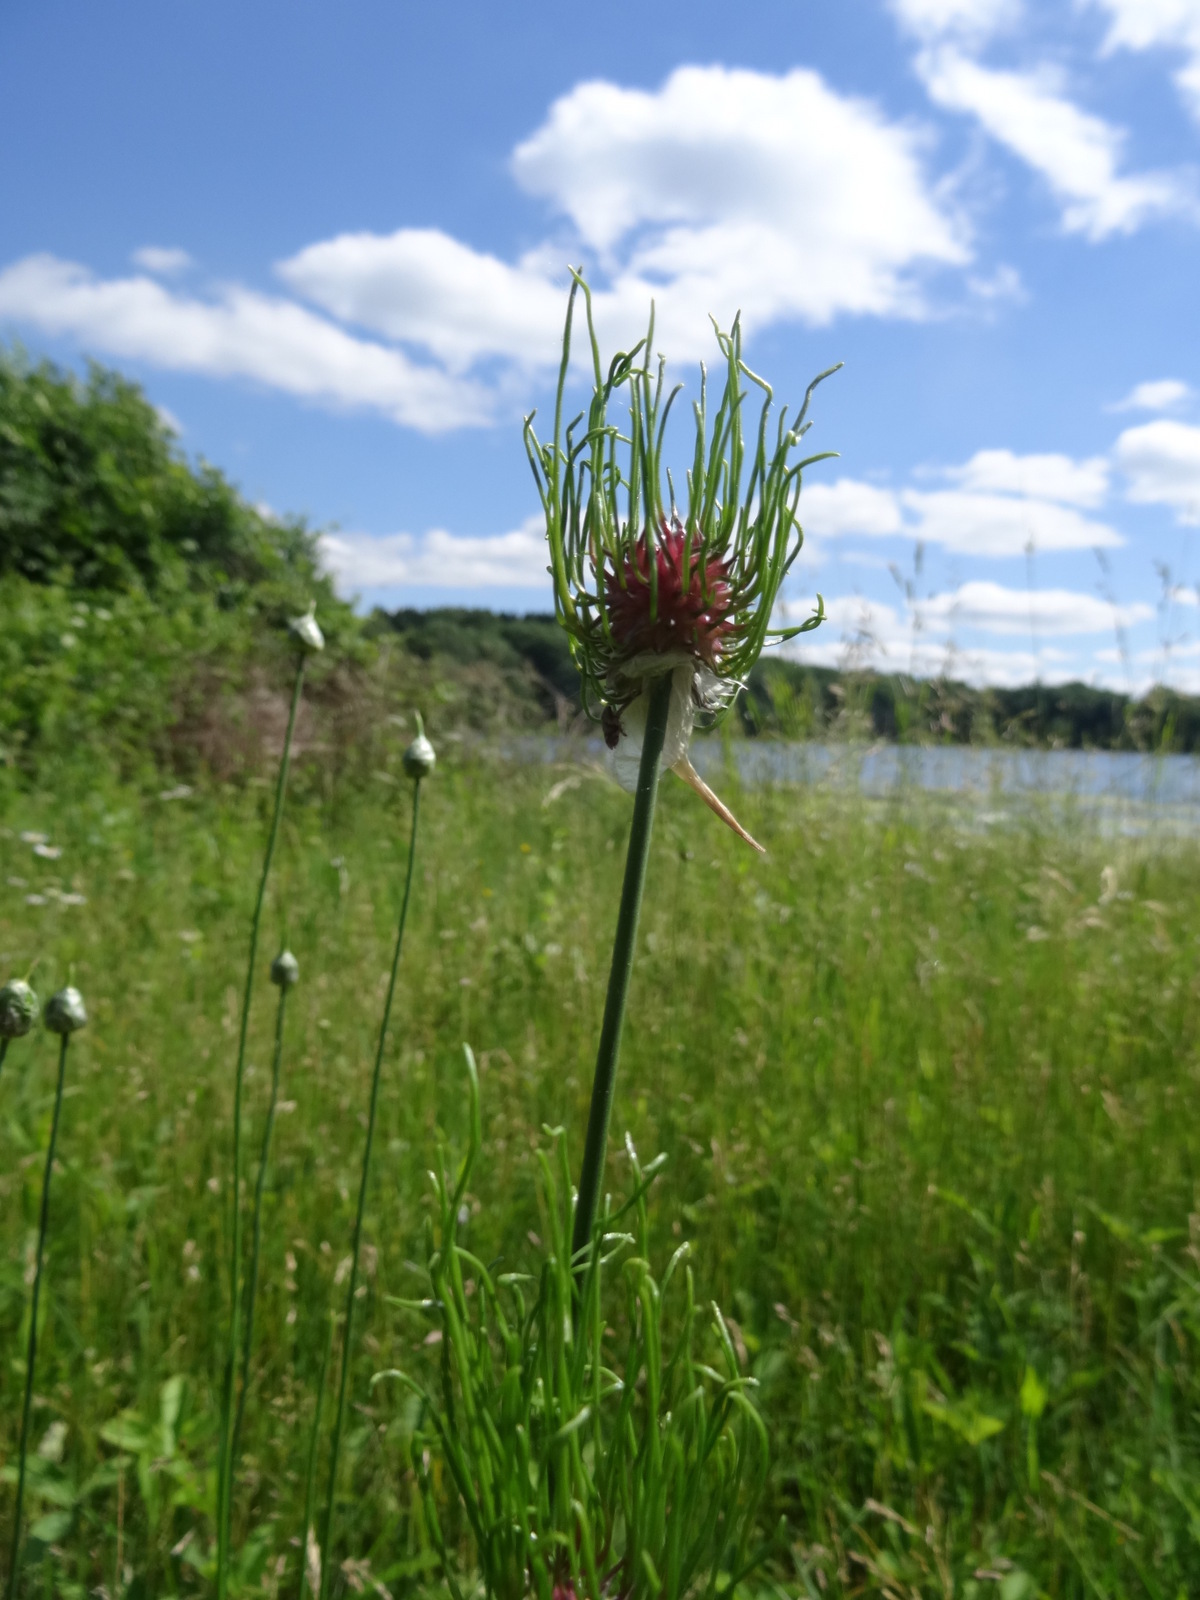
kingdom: Plantae
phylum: Tracheophyta
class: Liliopsida
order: Asparagales
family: Amaryllidaceae
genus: Allium
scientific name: Allium canadense
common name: Meadow garlic
